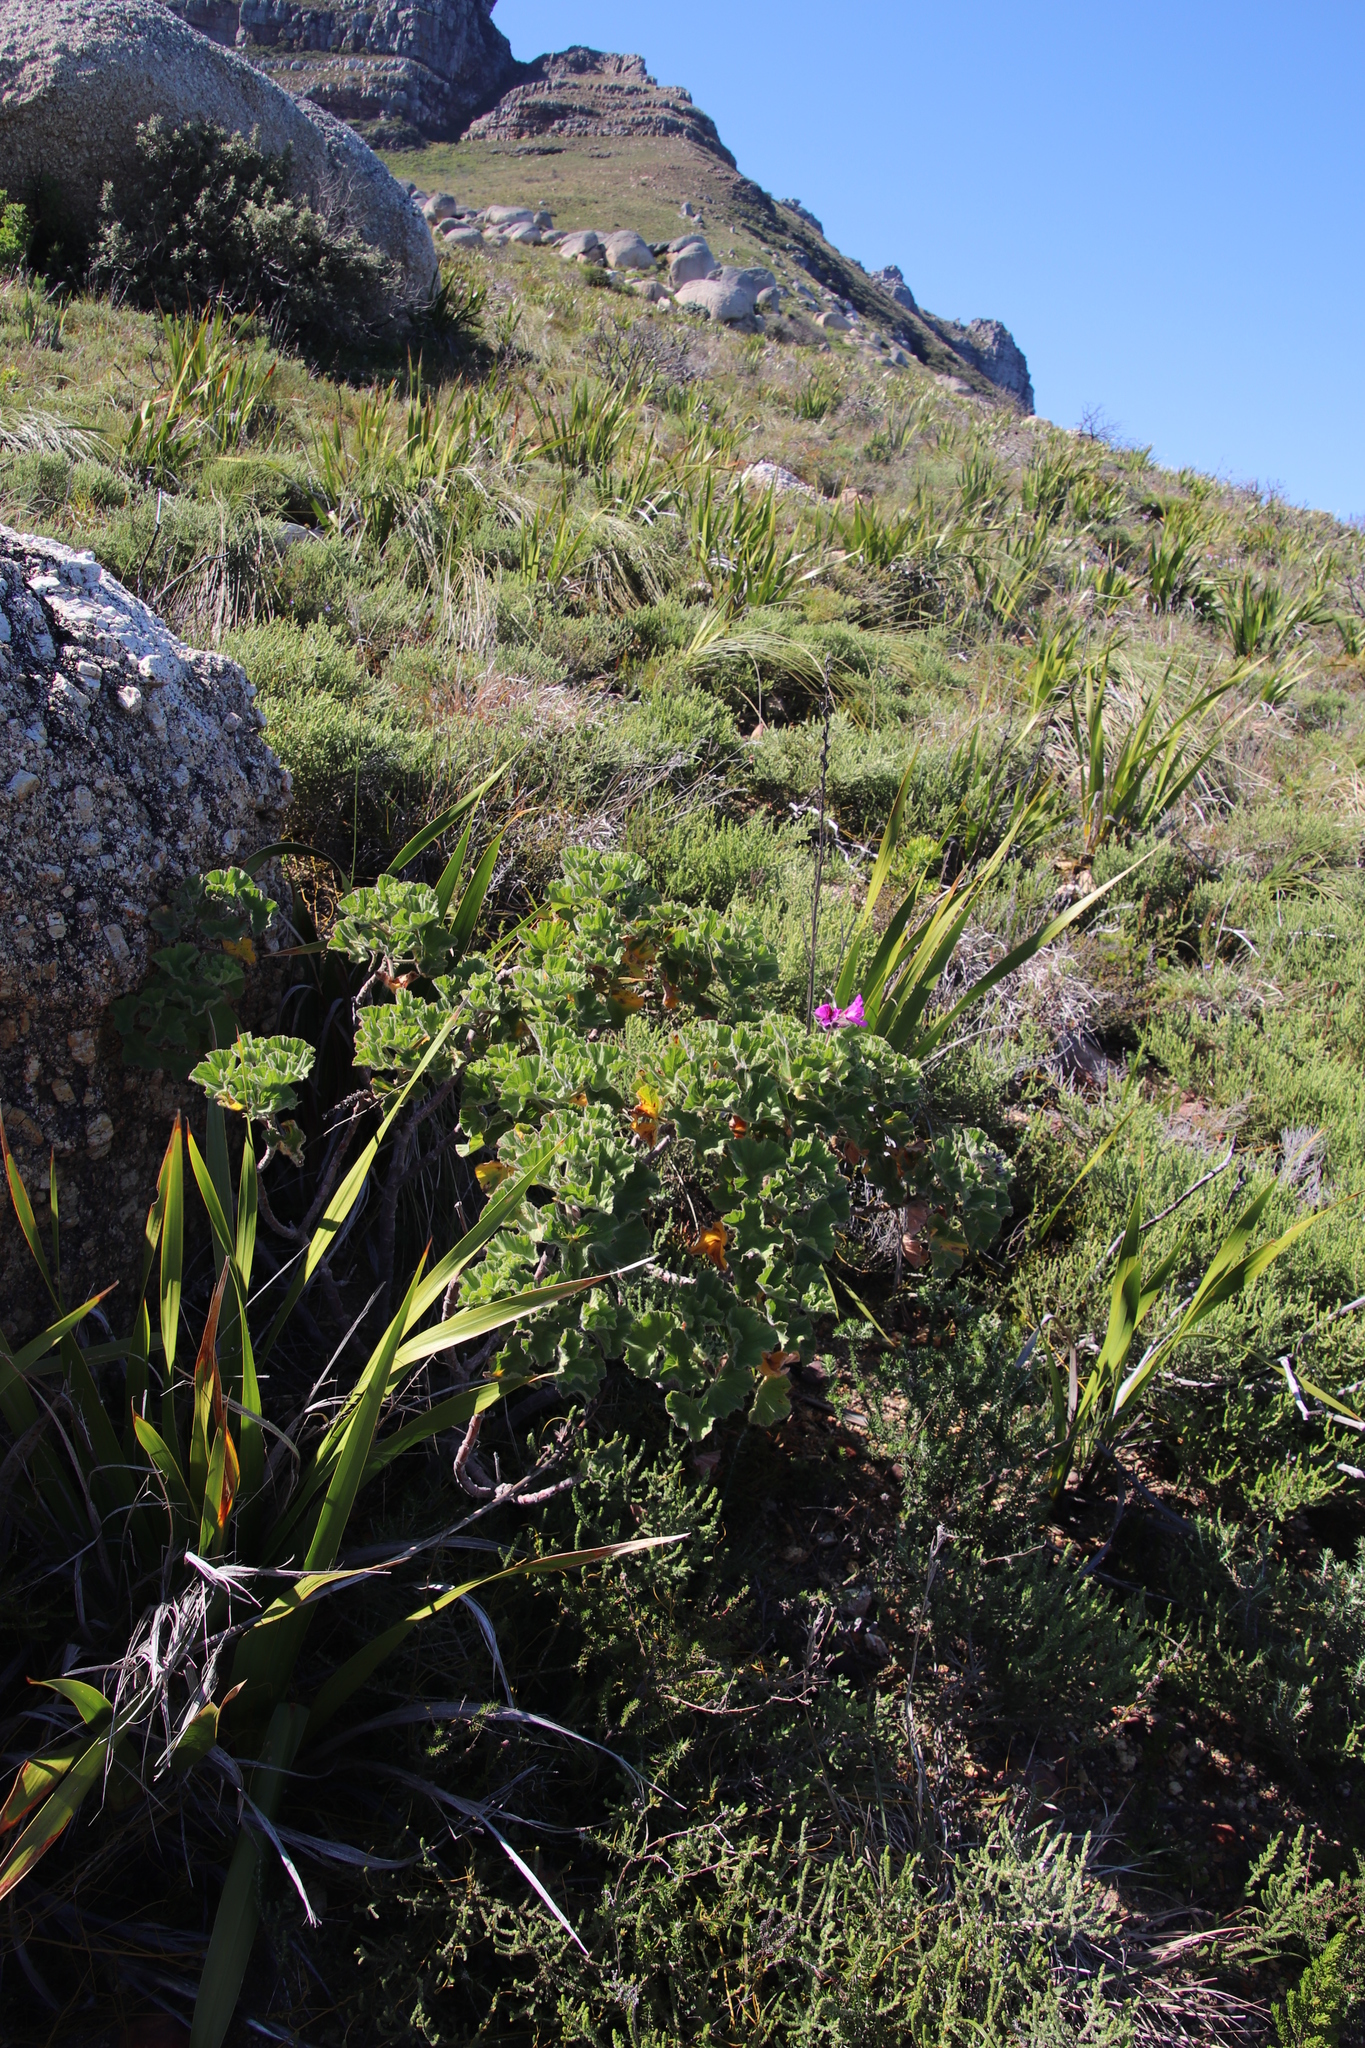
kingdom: Plantae
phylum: Tracheophyta
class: Magnoliopsida
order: Geraniales
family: Geraniaceae
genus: Pelargonium
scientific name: Pelargonium cucullatum
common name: Tree pelargonium
